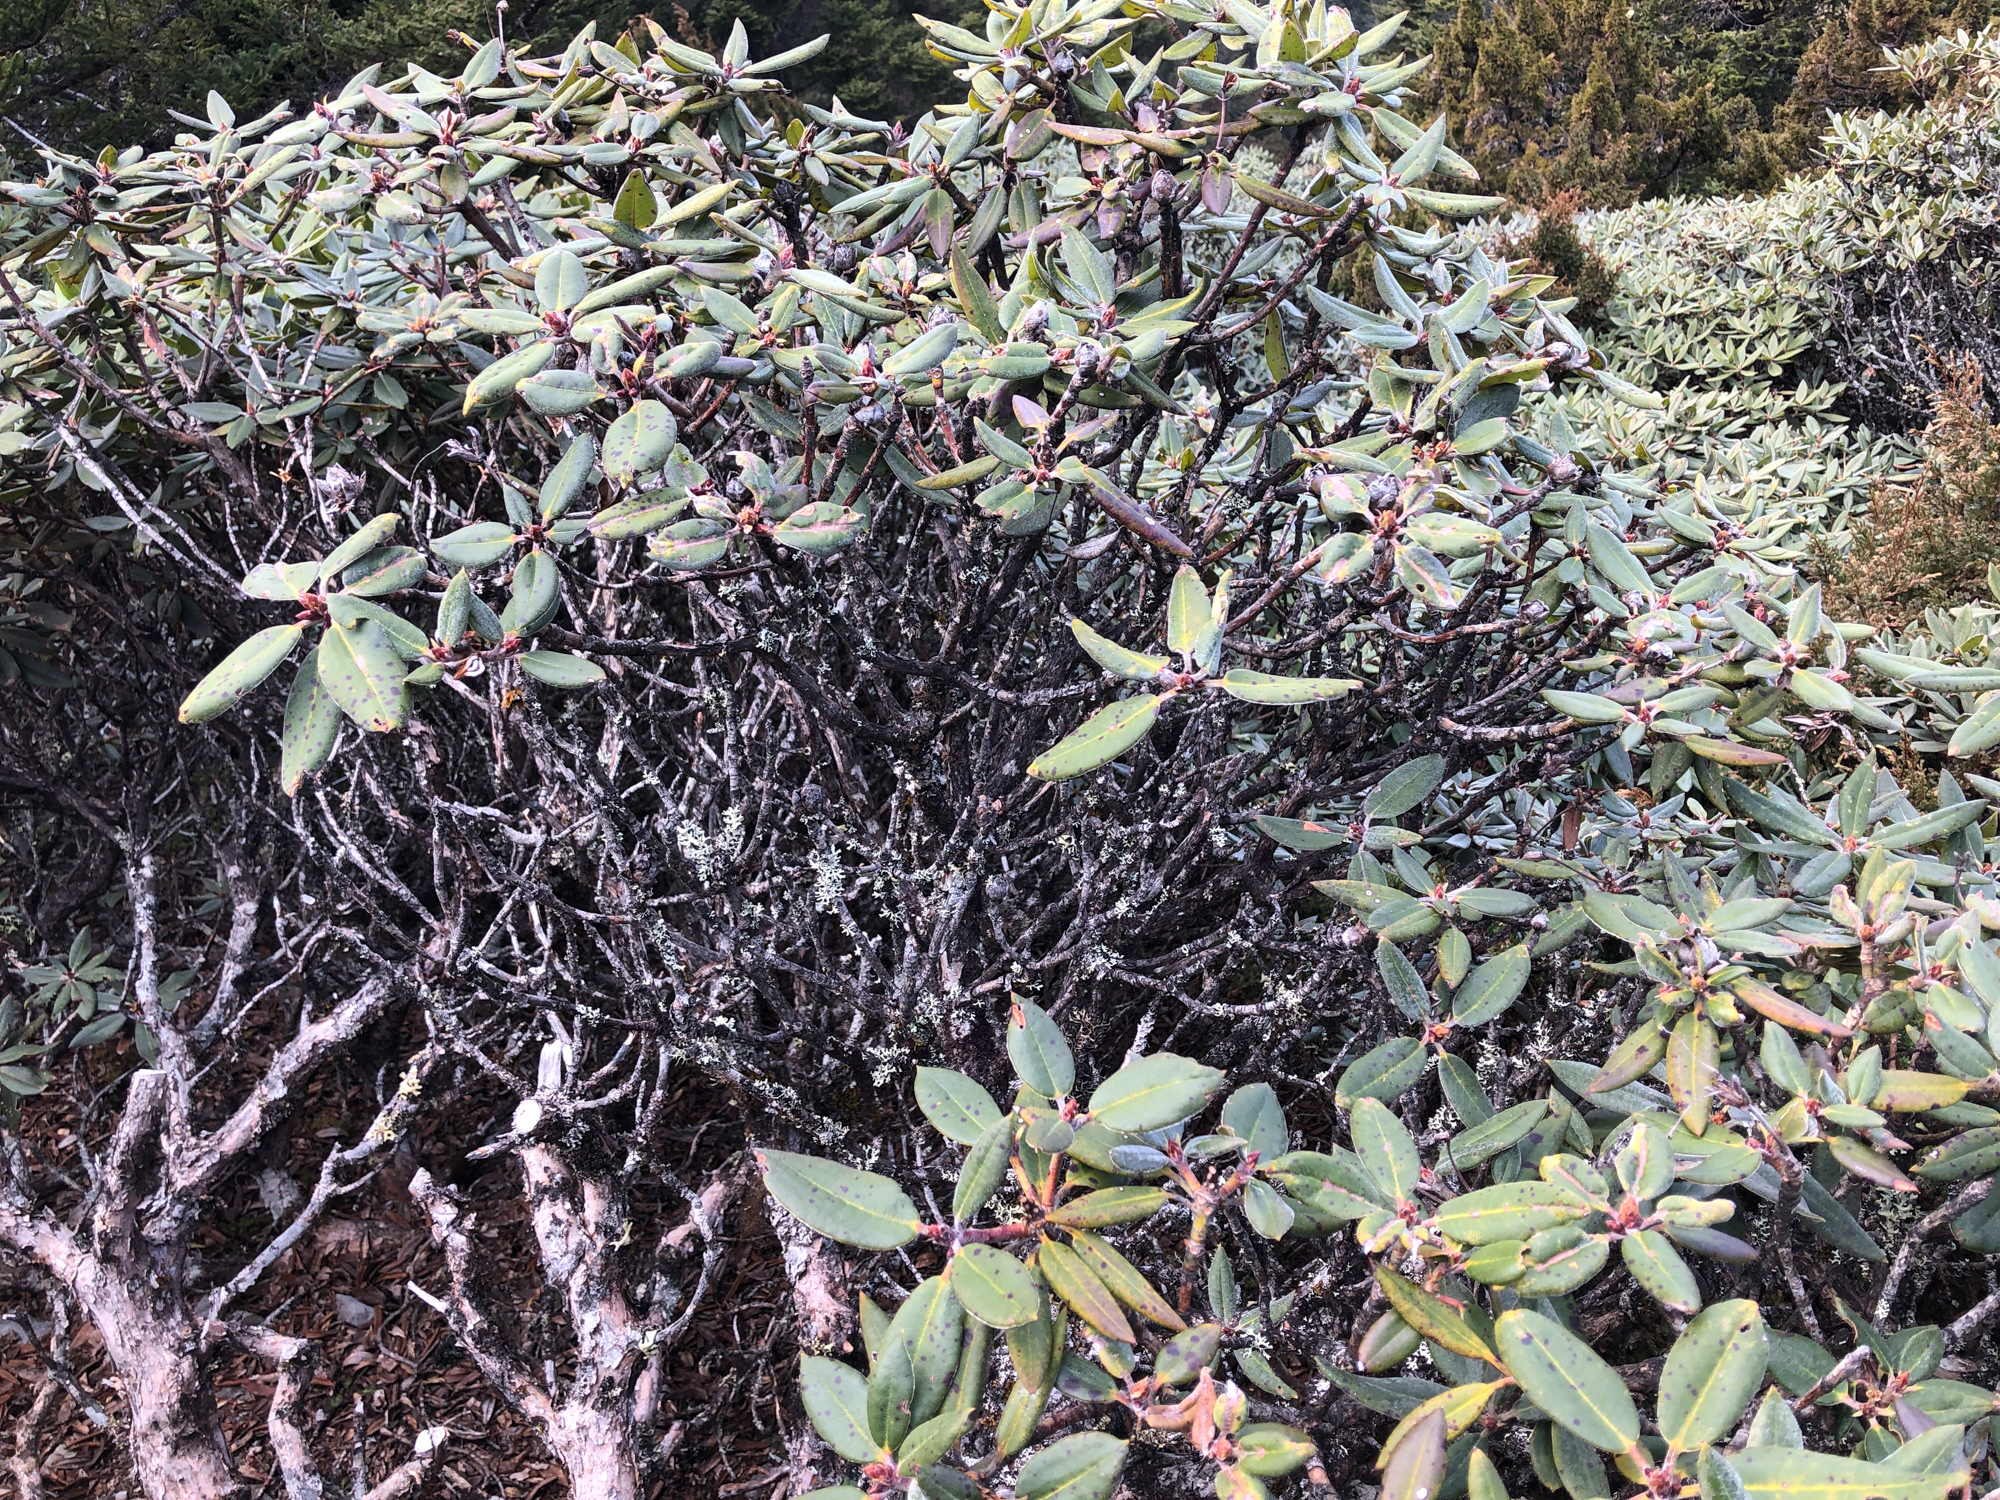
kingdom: Plantae
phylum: Tracheophyta
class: Magnoliopsida
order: Ericales
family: Ericaceae
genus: Rhododendron
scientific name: Rhododendron pseudochrysanthum
